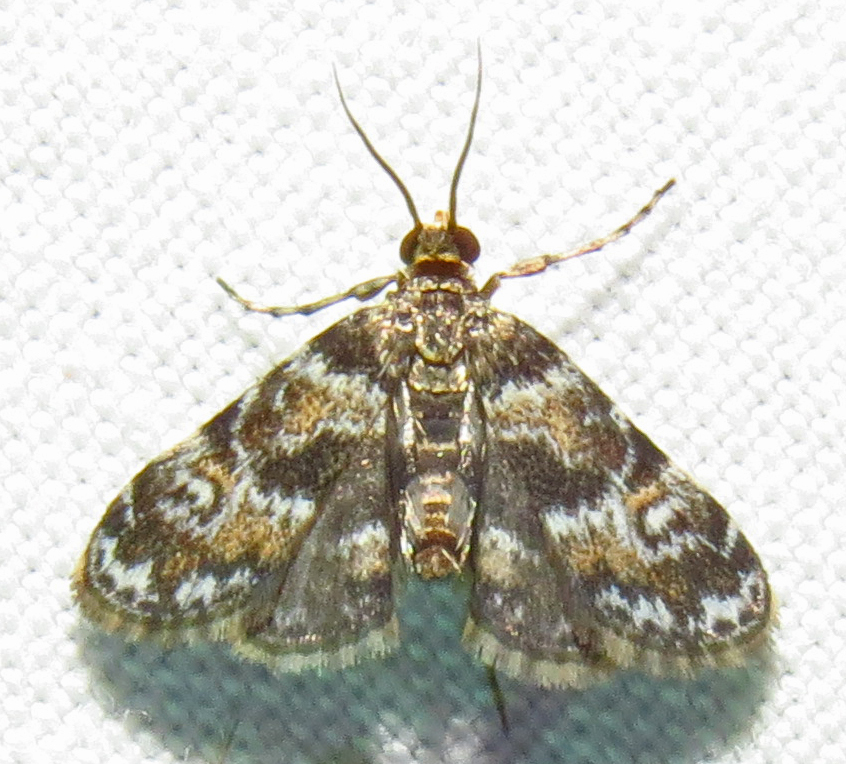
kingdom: Animalia
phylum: Arthropoda
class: Insecta
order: Lepidoptera
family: Crambidae
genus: Elophila
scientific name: Elophila obliteralis
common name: Waterlily leafcutter moth
